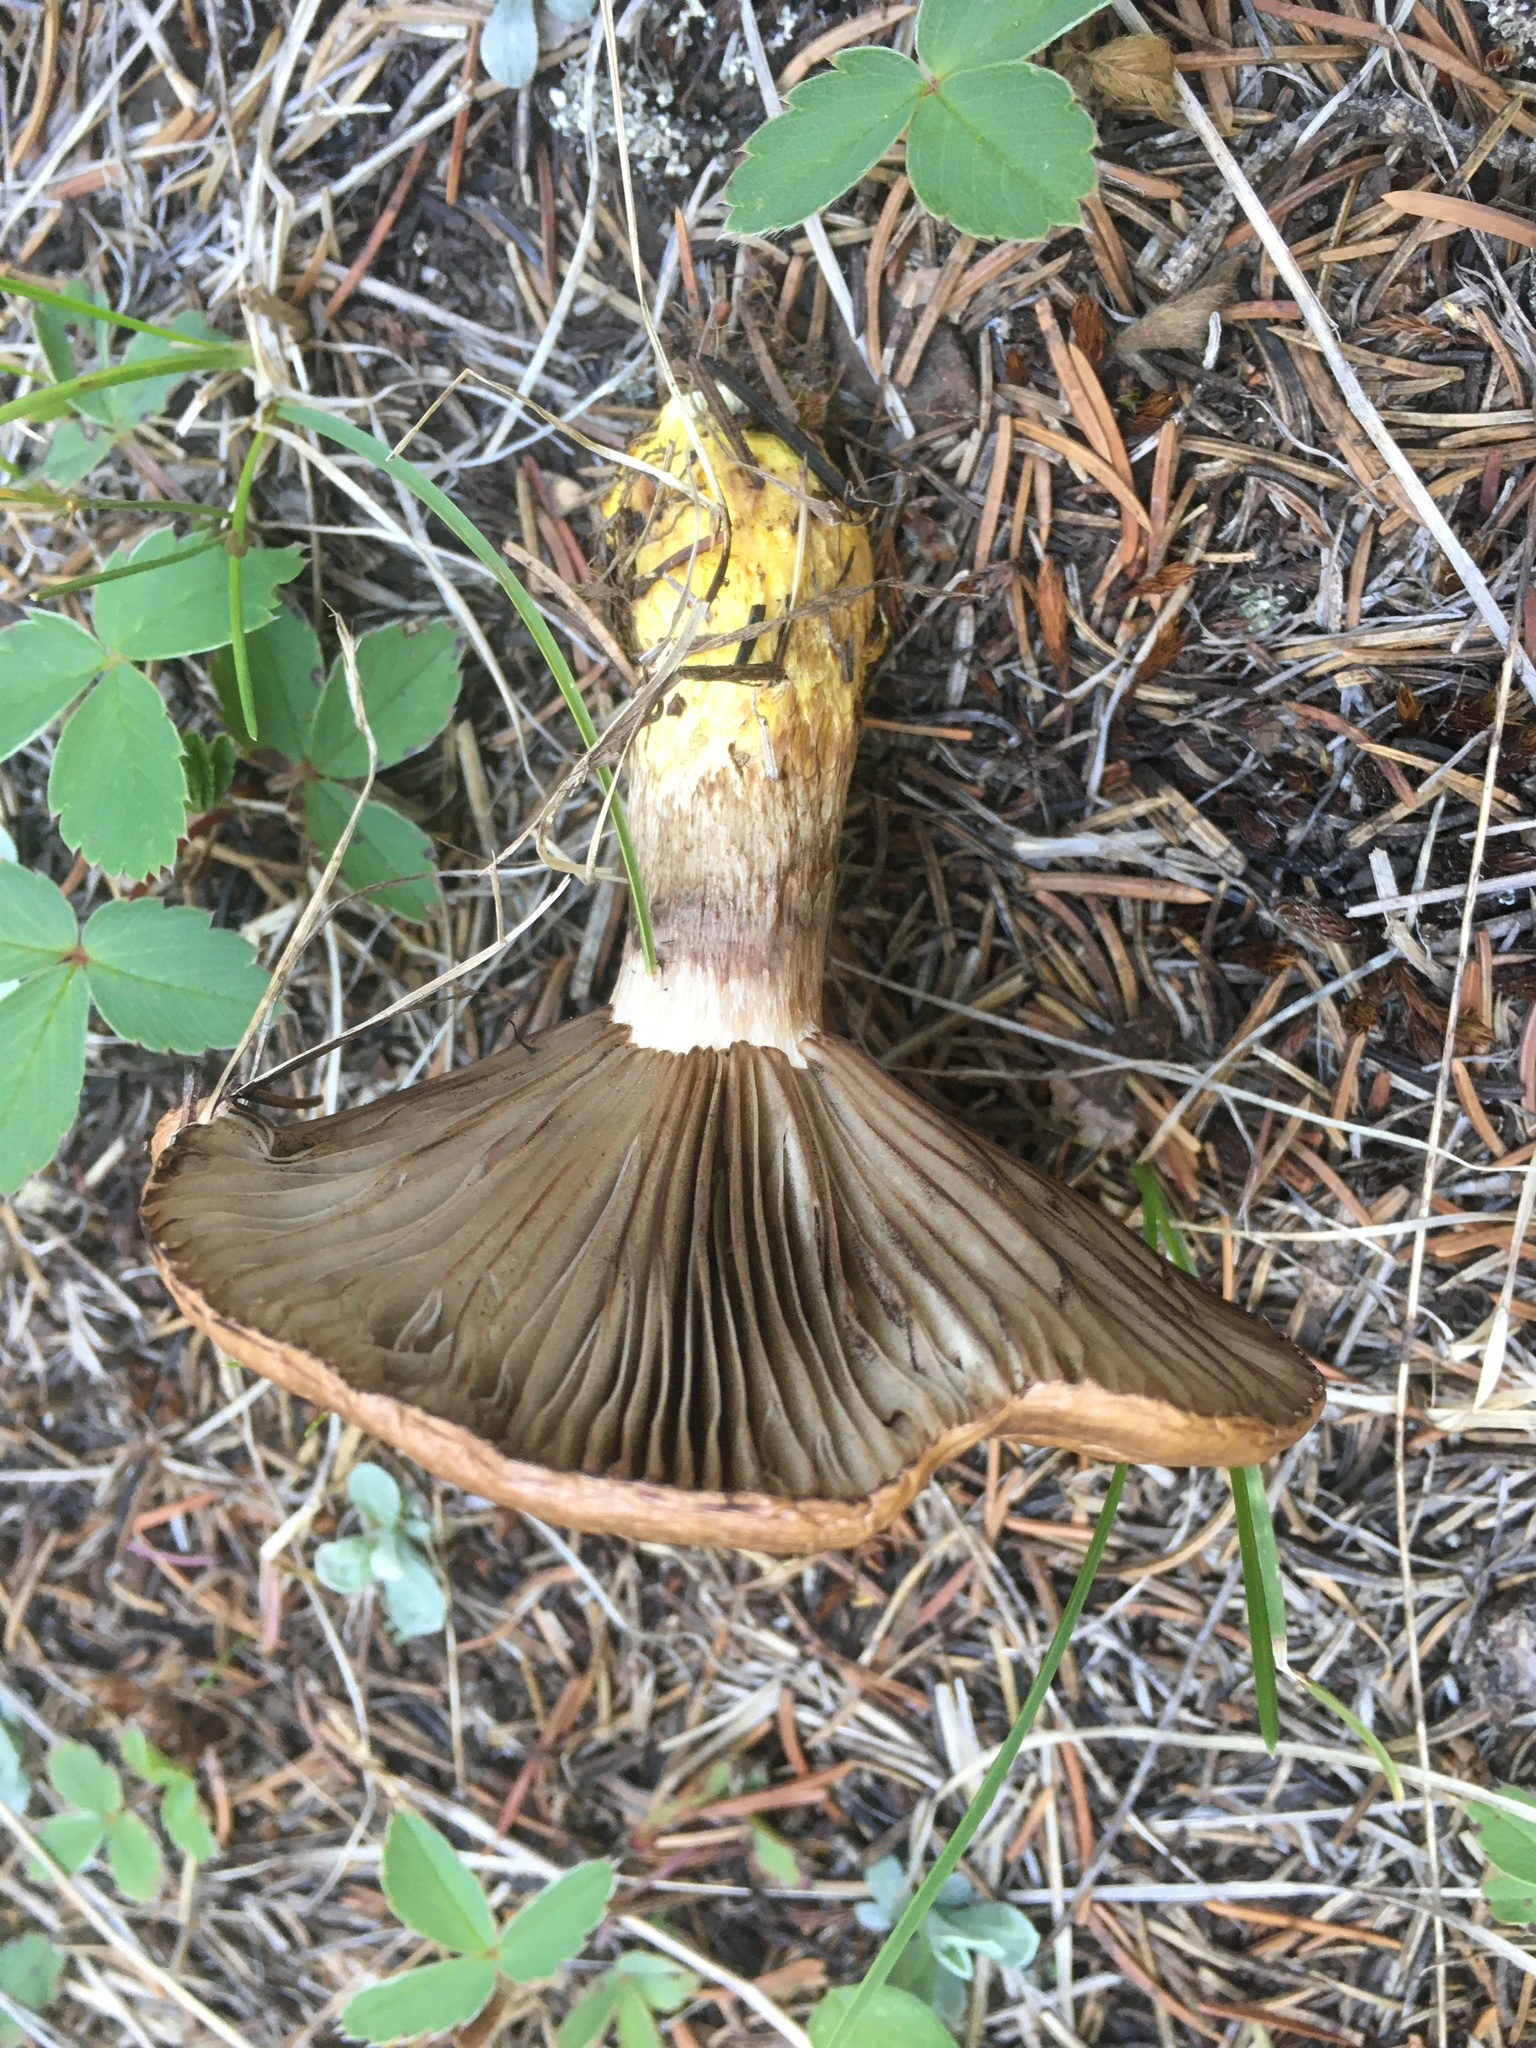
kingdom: Fungi
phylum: Basidiomycota
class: Agaricomycetes
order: Boletales
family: Gomphidiaceae
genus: Gomphidius
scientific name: Gomphidius glutinosus
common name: Slimy spike
